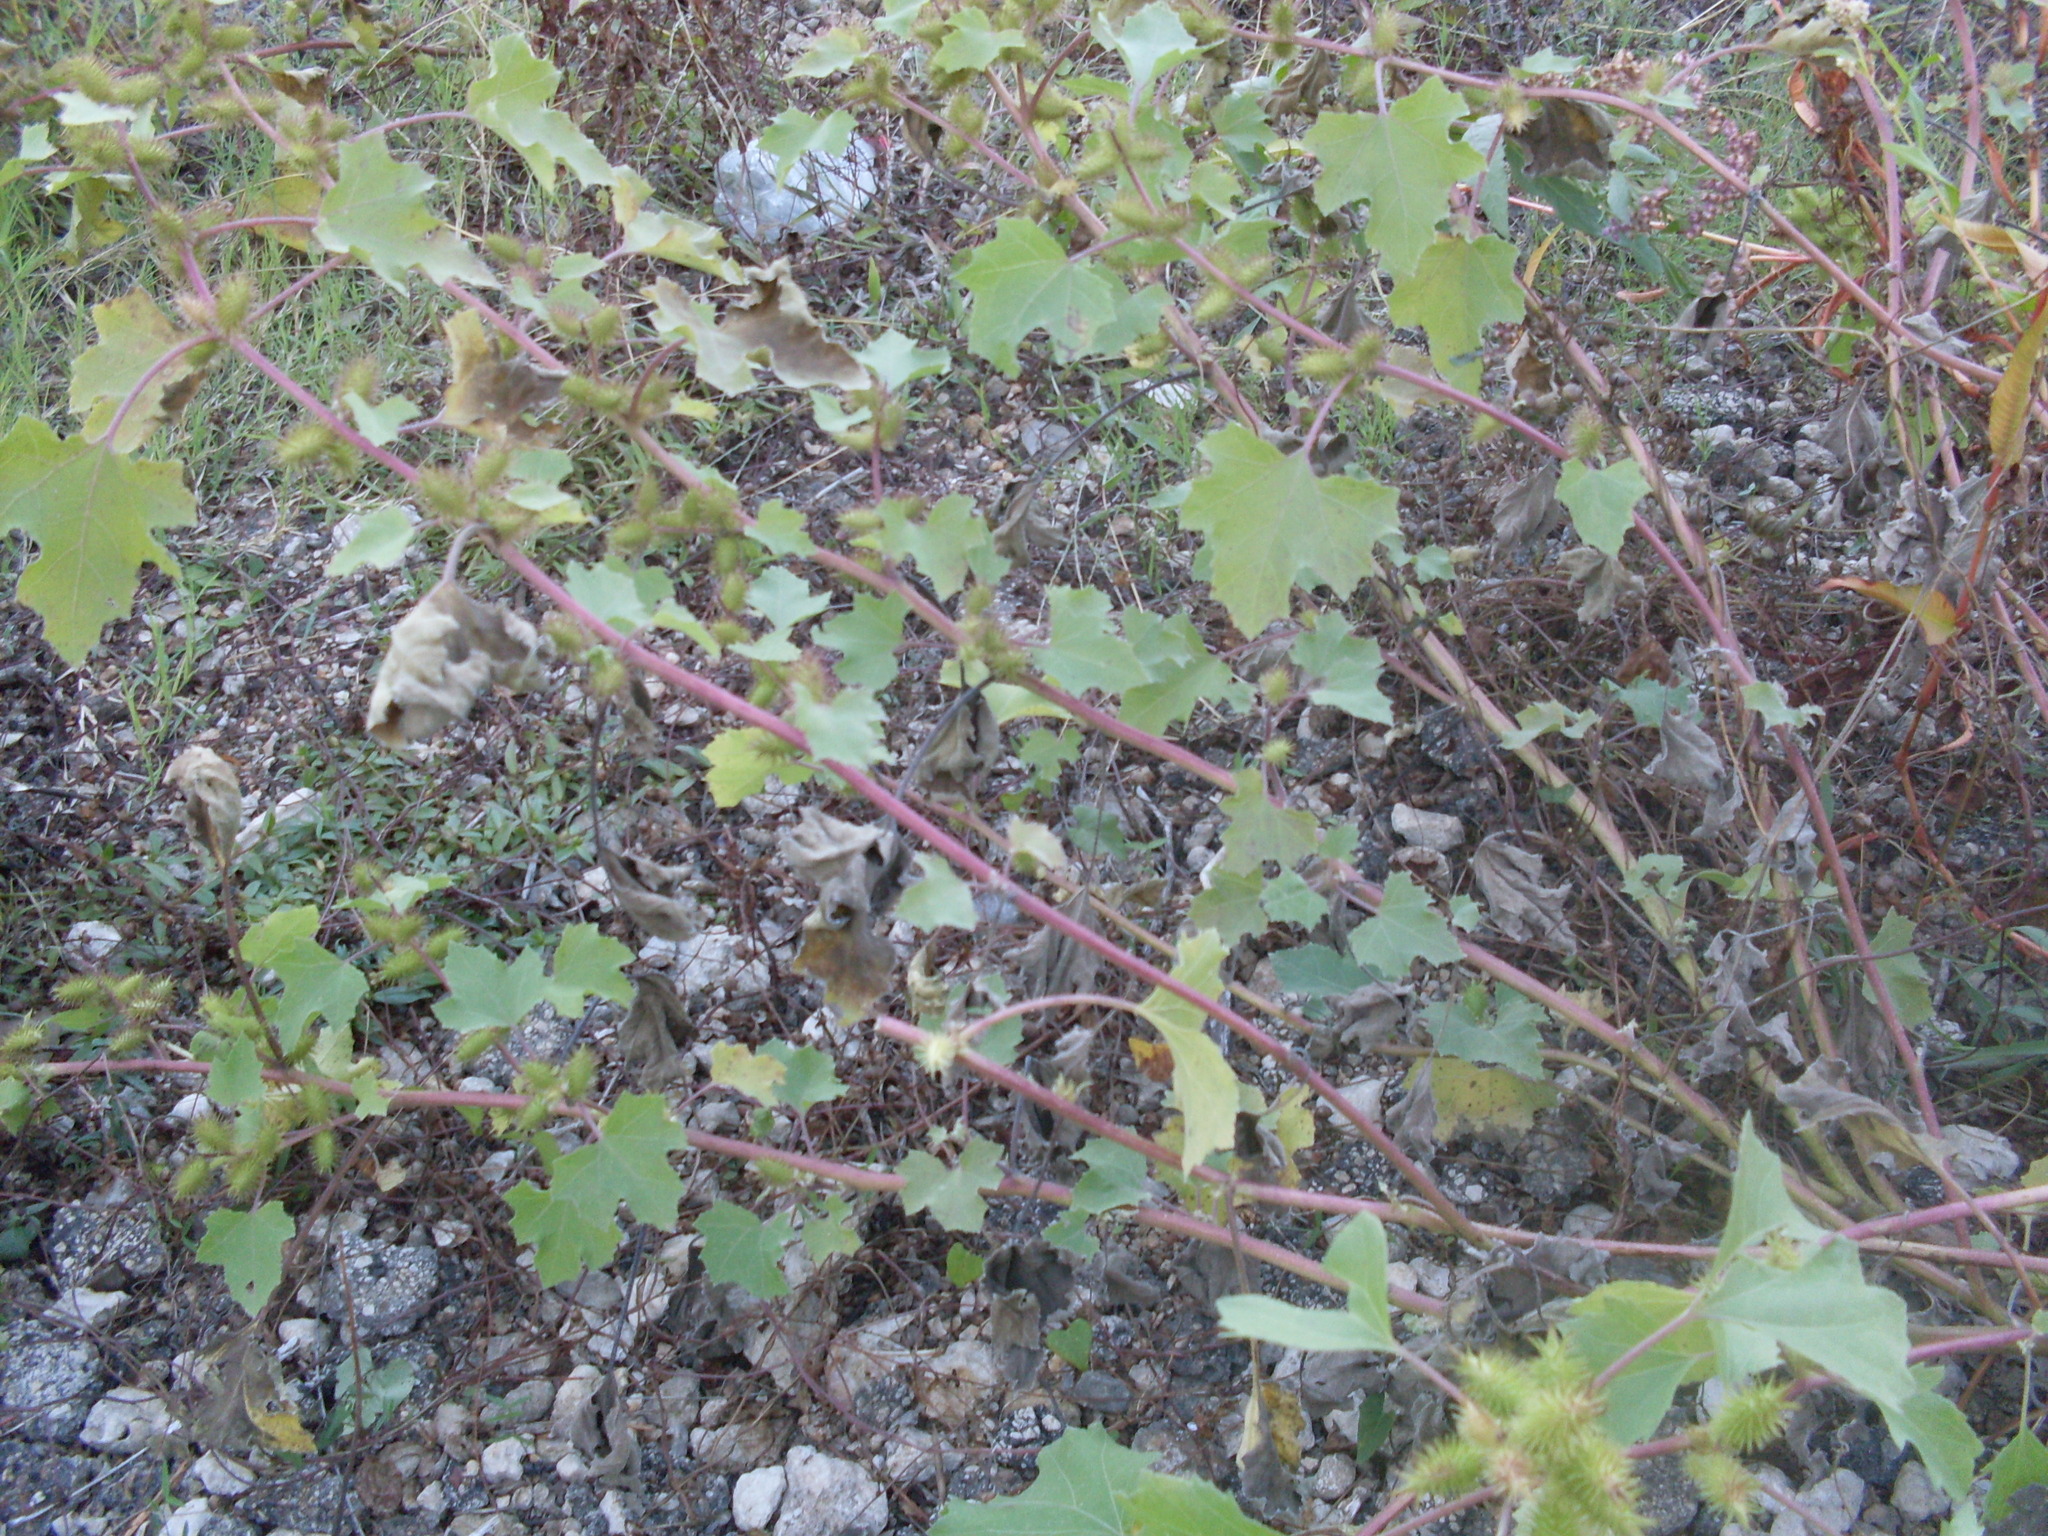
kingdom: Plantae
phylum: Tracheophyta
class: Magnoliopsida
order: Asterales
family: Asteraceae
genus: Xanthium
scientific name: Xanthium strumarium
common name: Rough cocklebur
